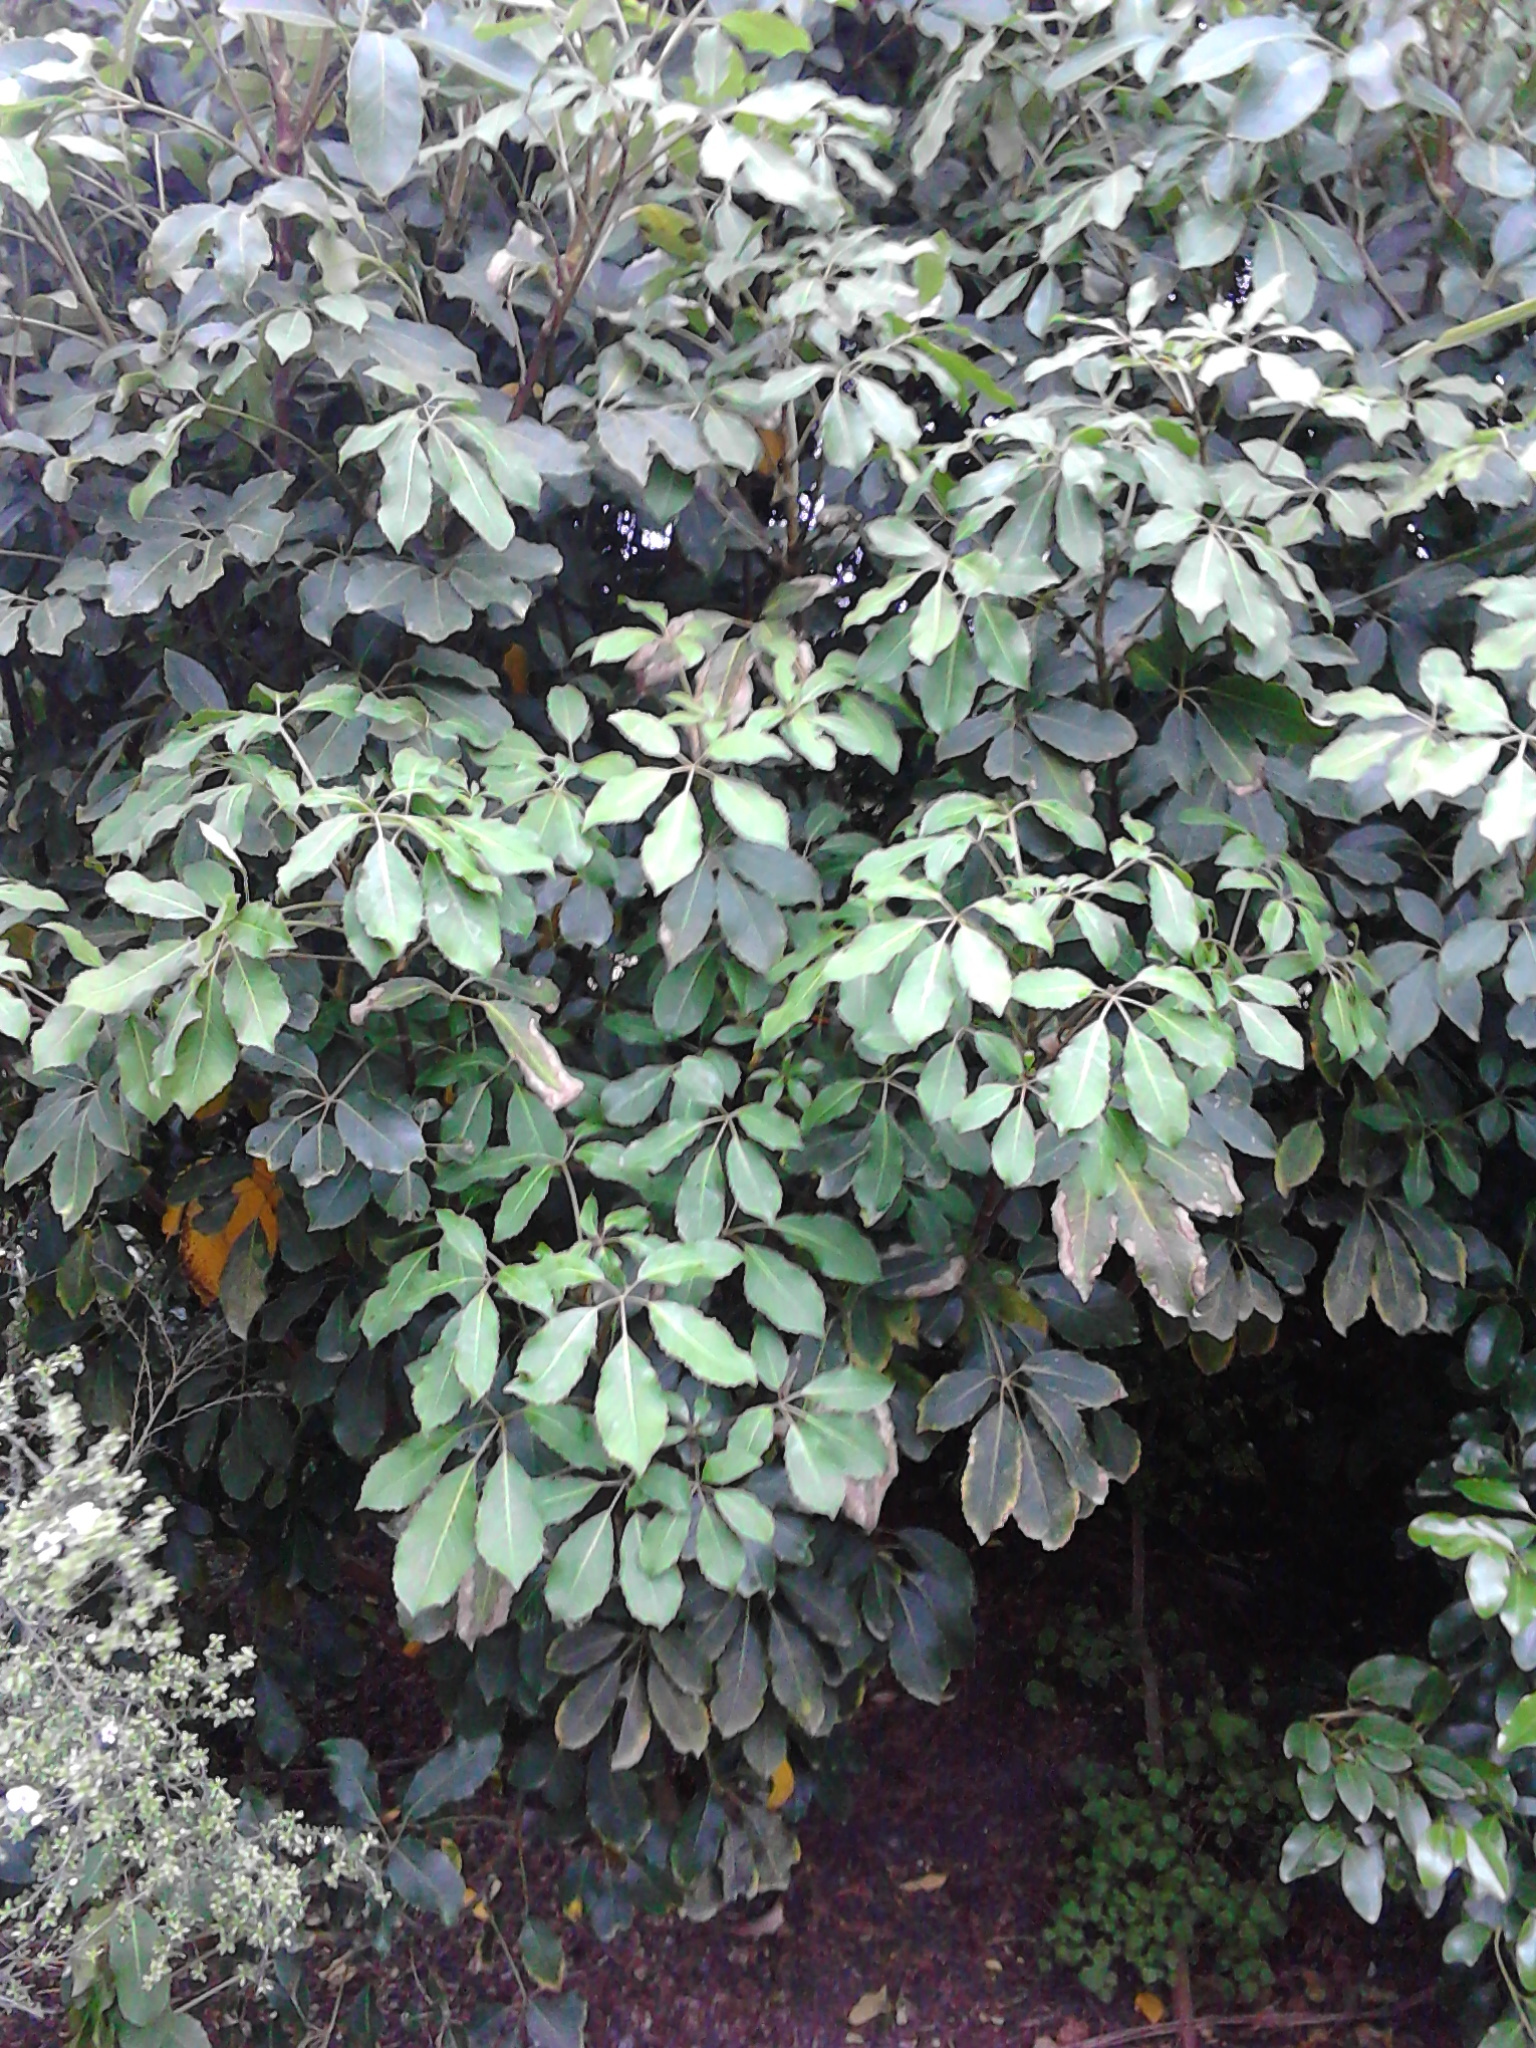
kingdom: Plantae
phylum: Tracheophyta
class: Magnoliopsida
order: Apiales
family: Araliaceae
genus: Neopanax
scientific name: Neopanax arboreus
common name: Five-fingers
